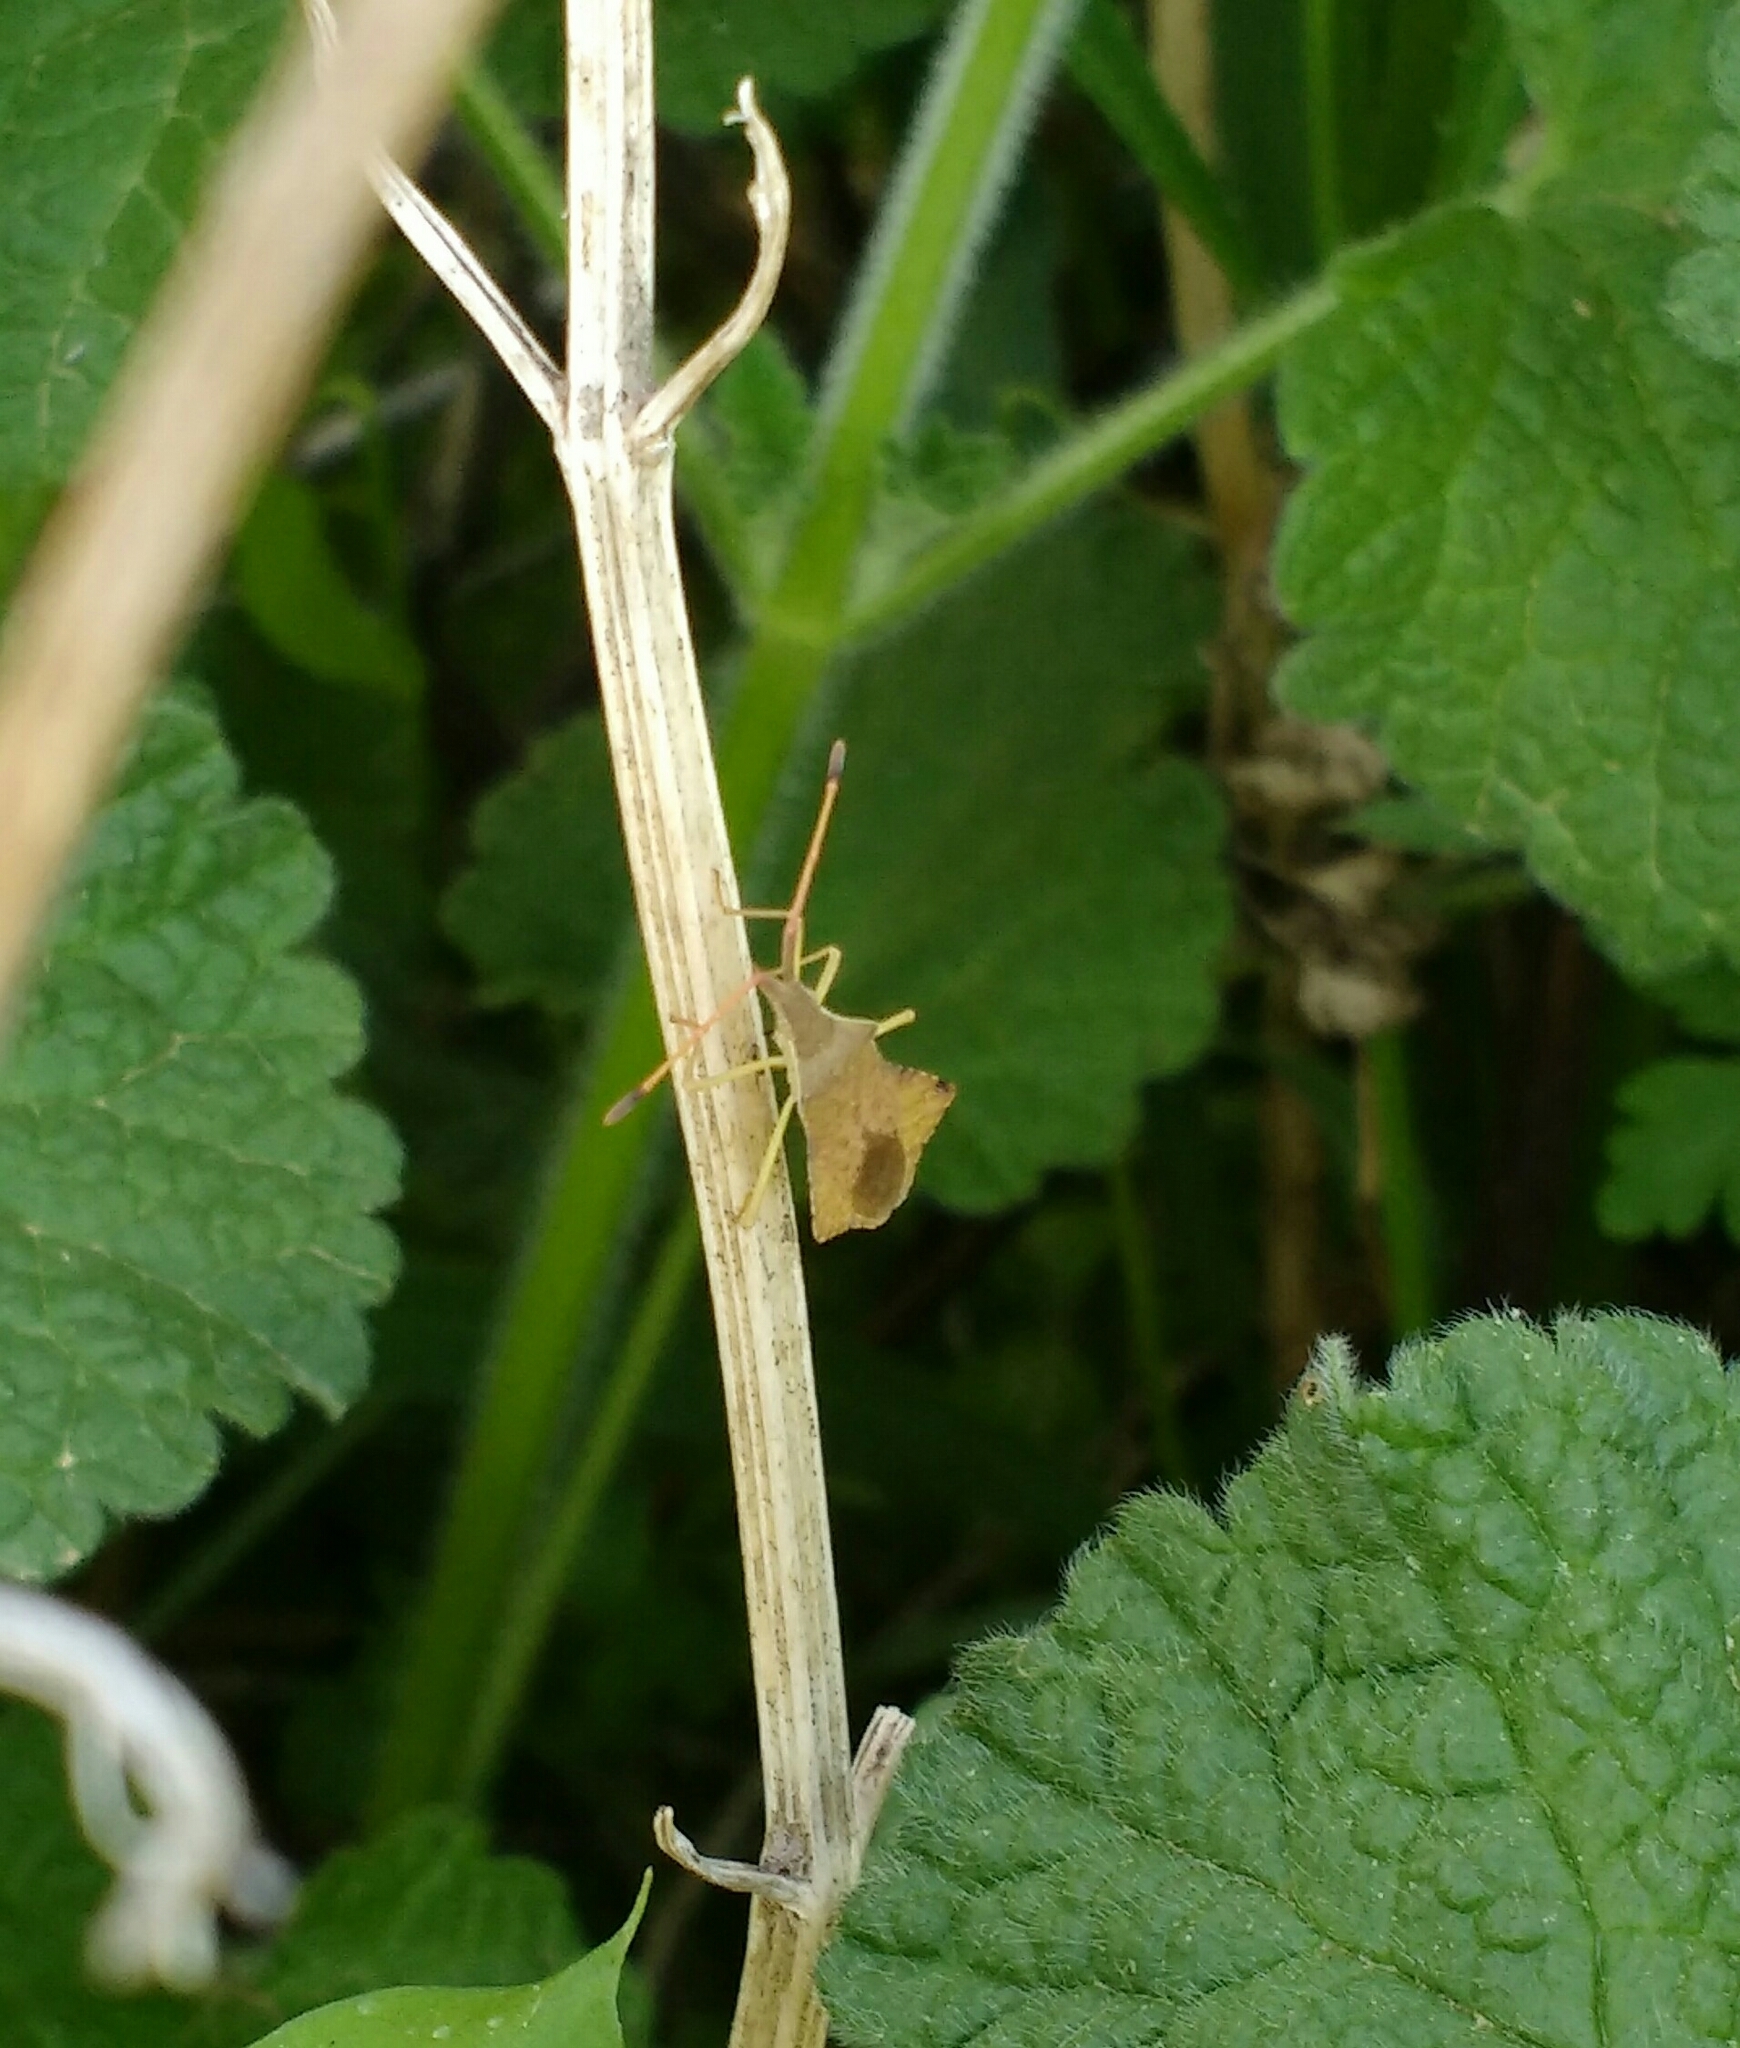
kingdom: Animalia
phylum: Arthropoda
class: Insecta
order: Hemiptera
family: Coreidae
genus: Syromastus
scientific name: Syromastus rhombeus
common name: Rhombic leatherbug
